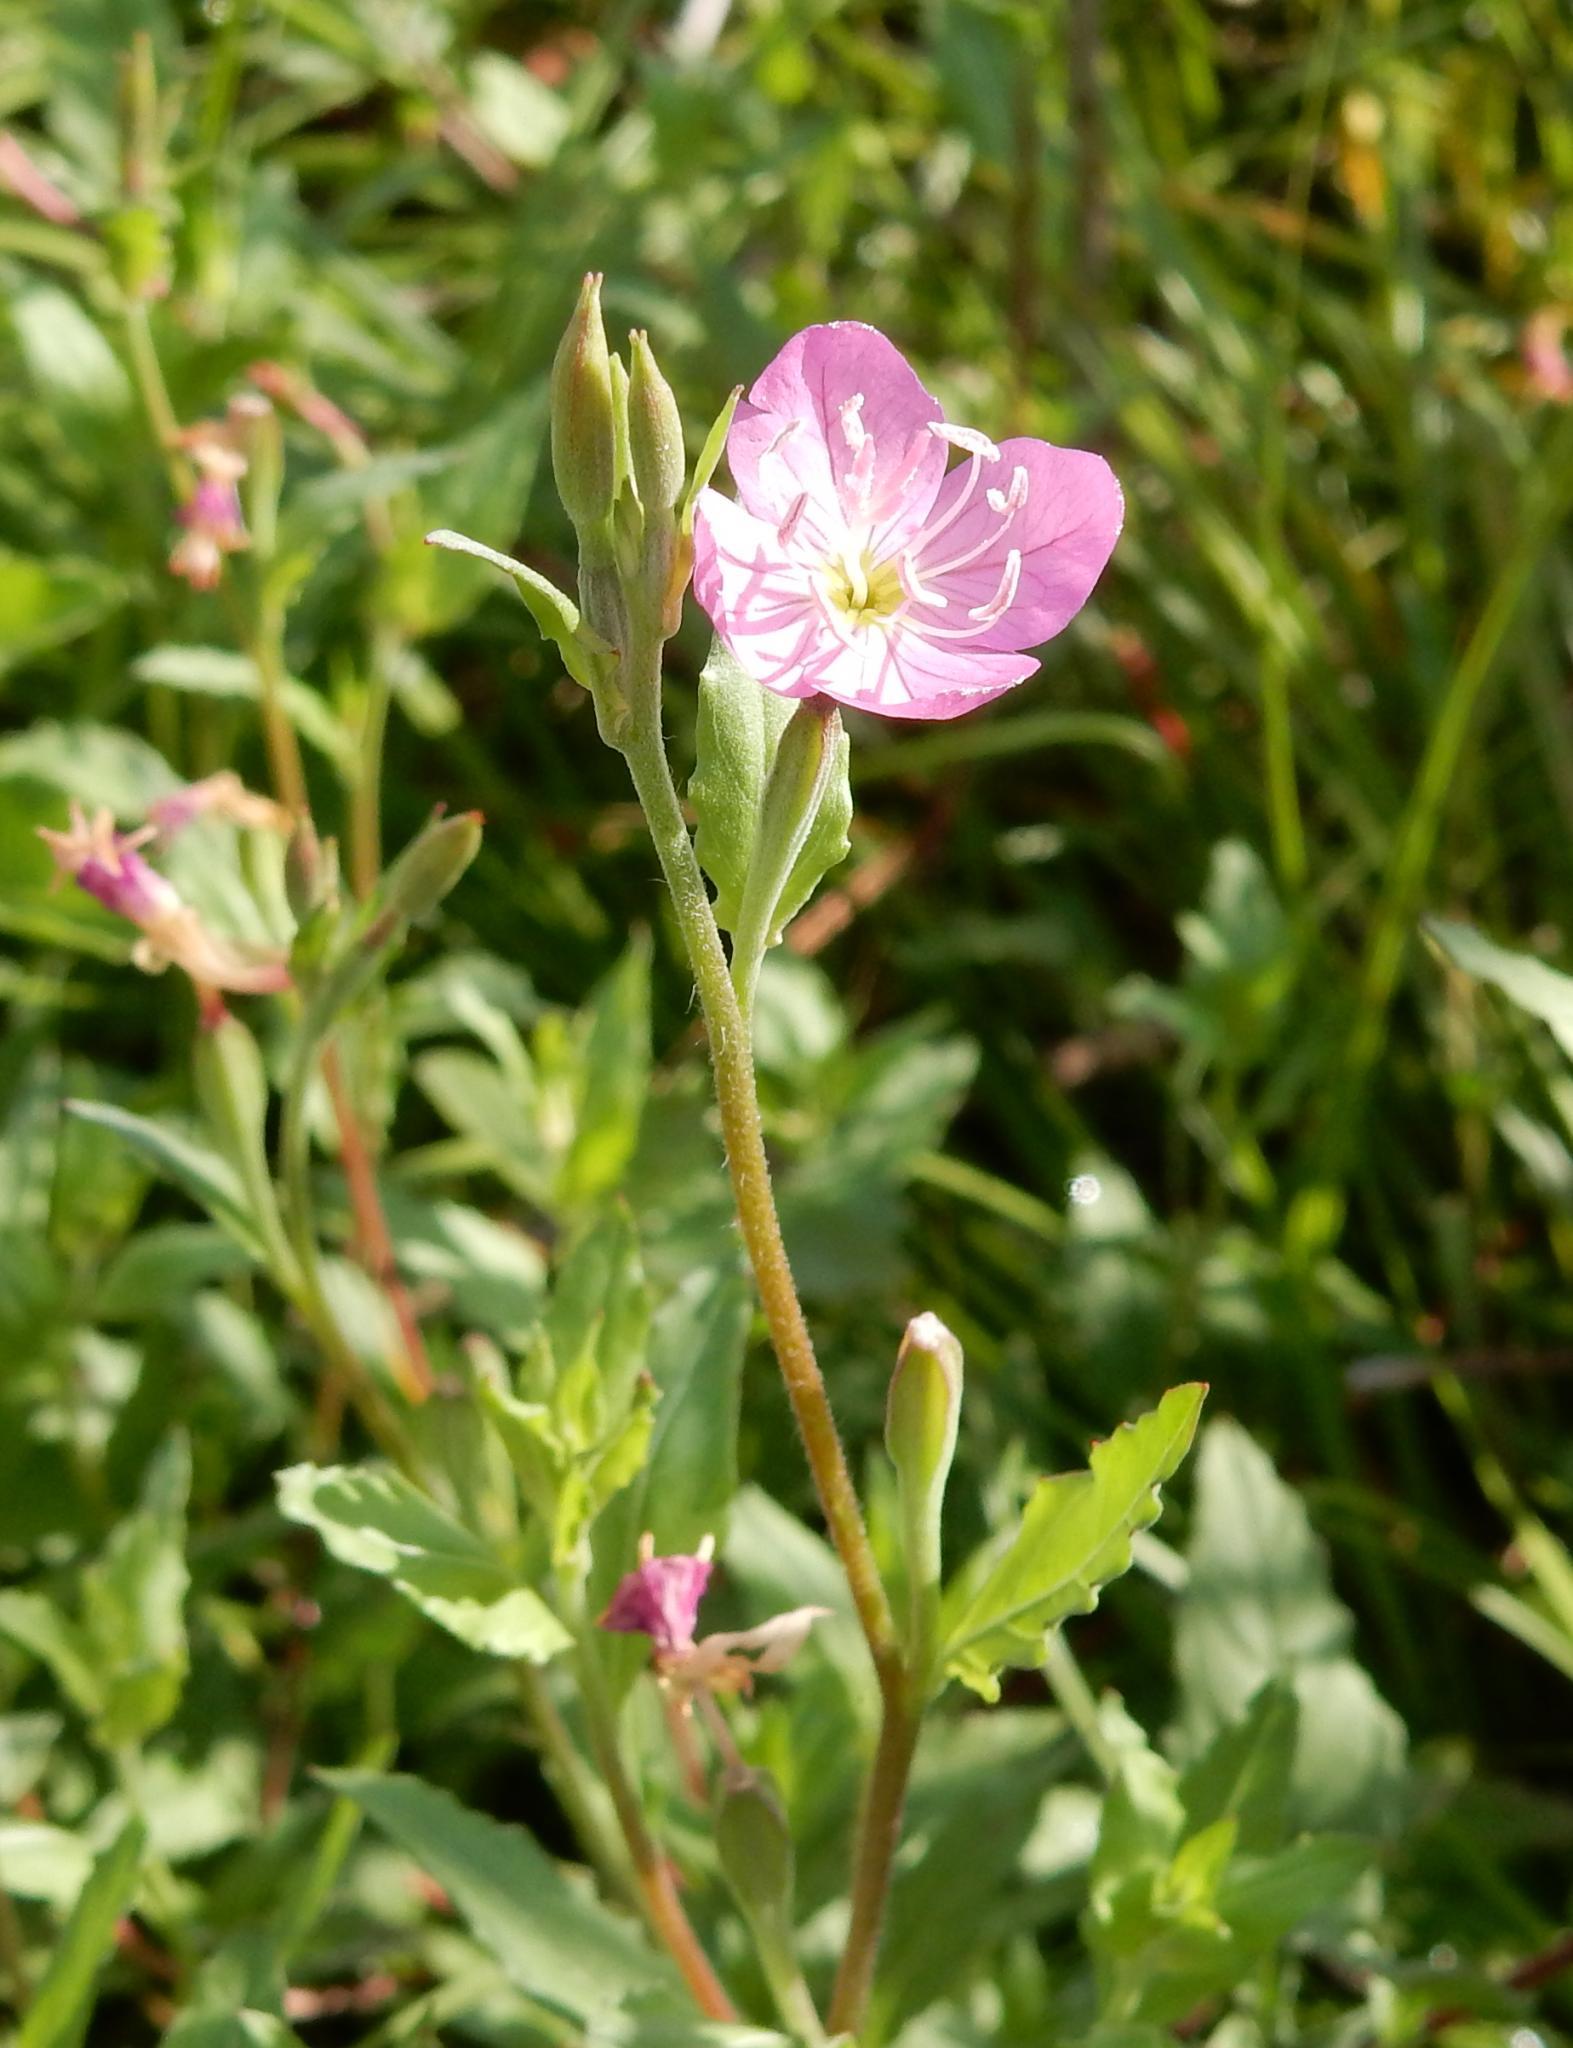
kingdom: Plantae
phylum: Tracheophyta
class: Magnoliopsida
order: Myrtales
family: Onagraceae
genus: Oenothera
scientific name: Oenothera rosea
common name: Rosy evening-primrose
